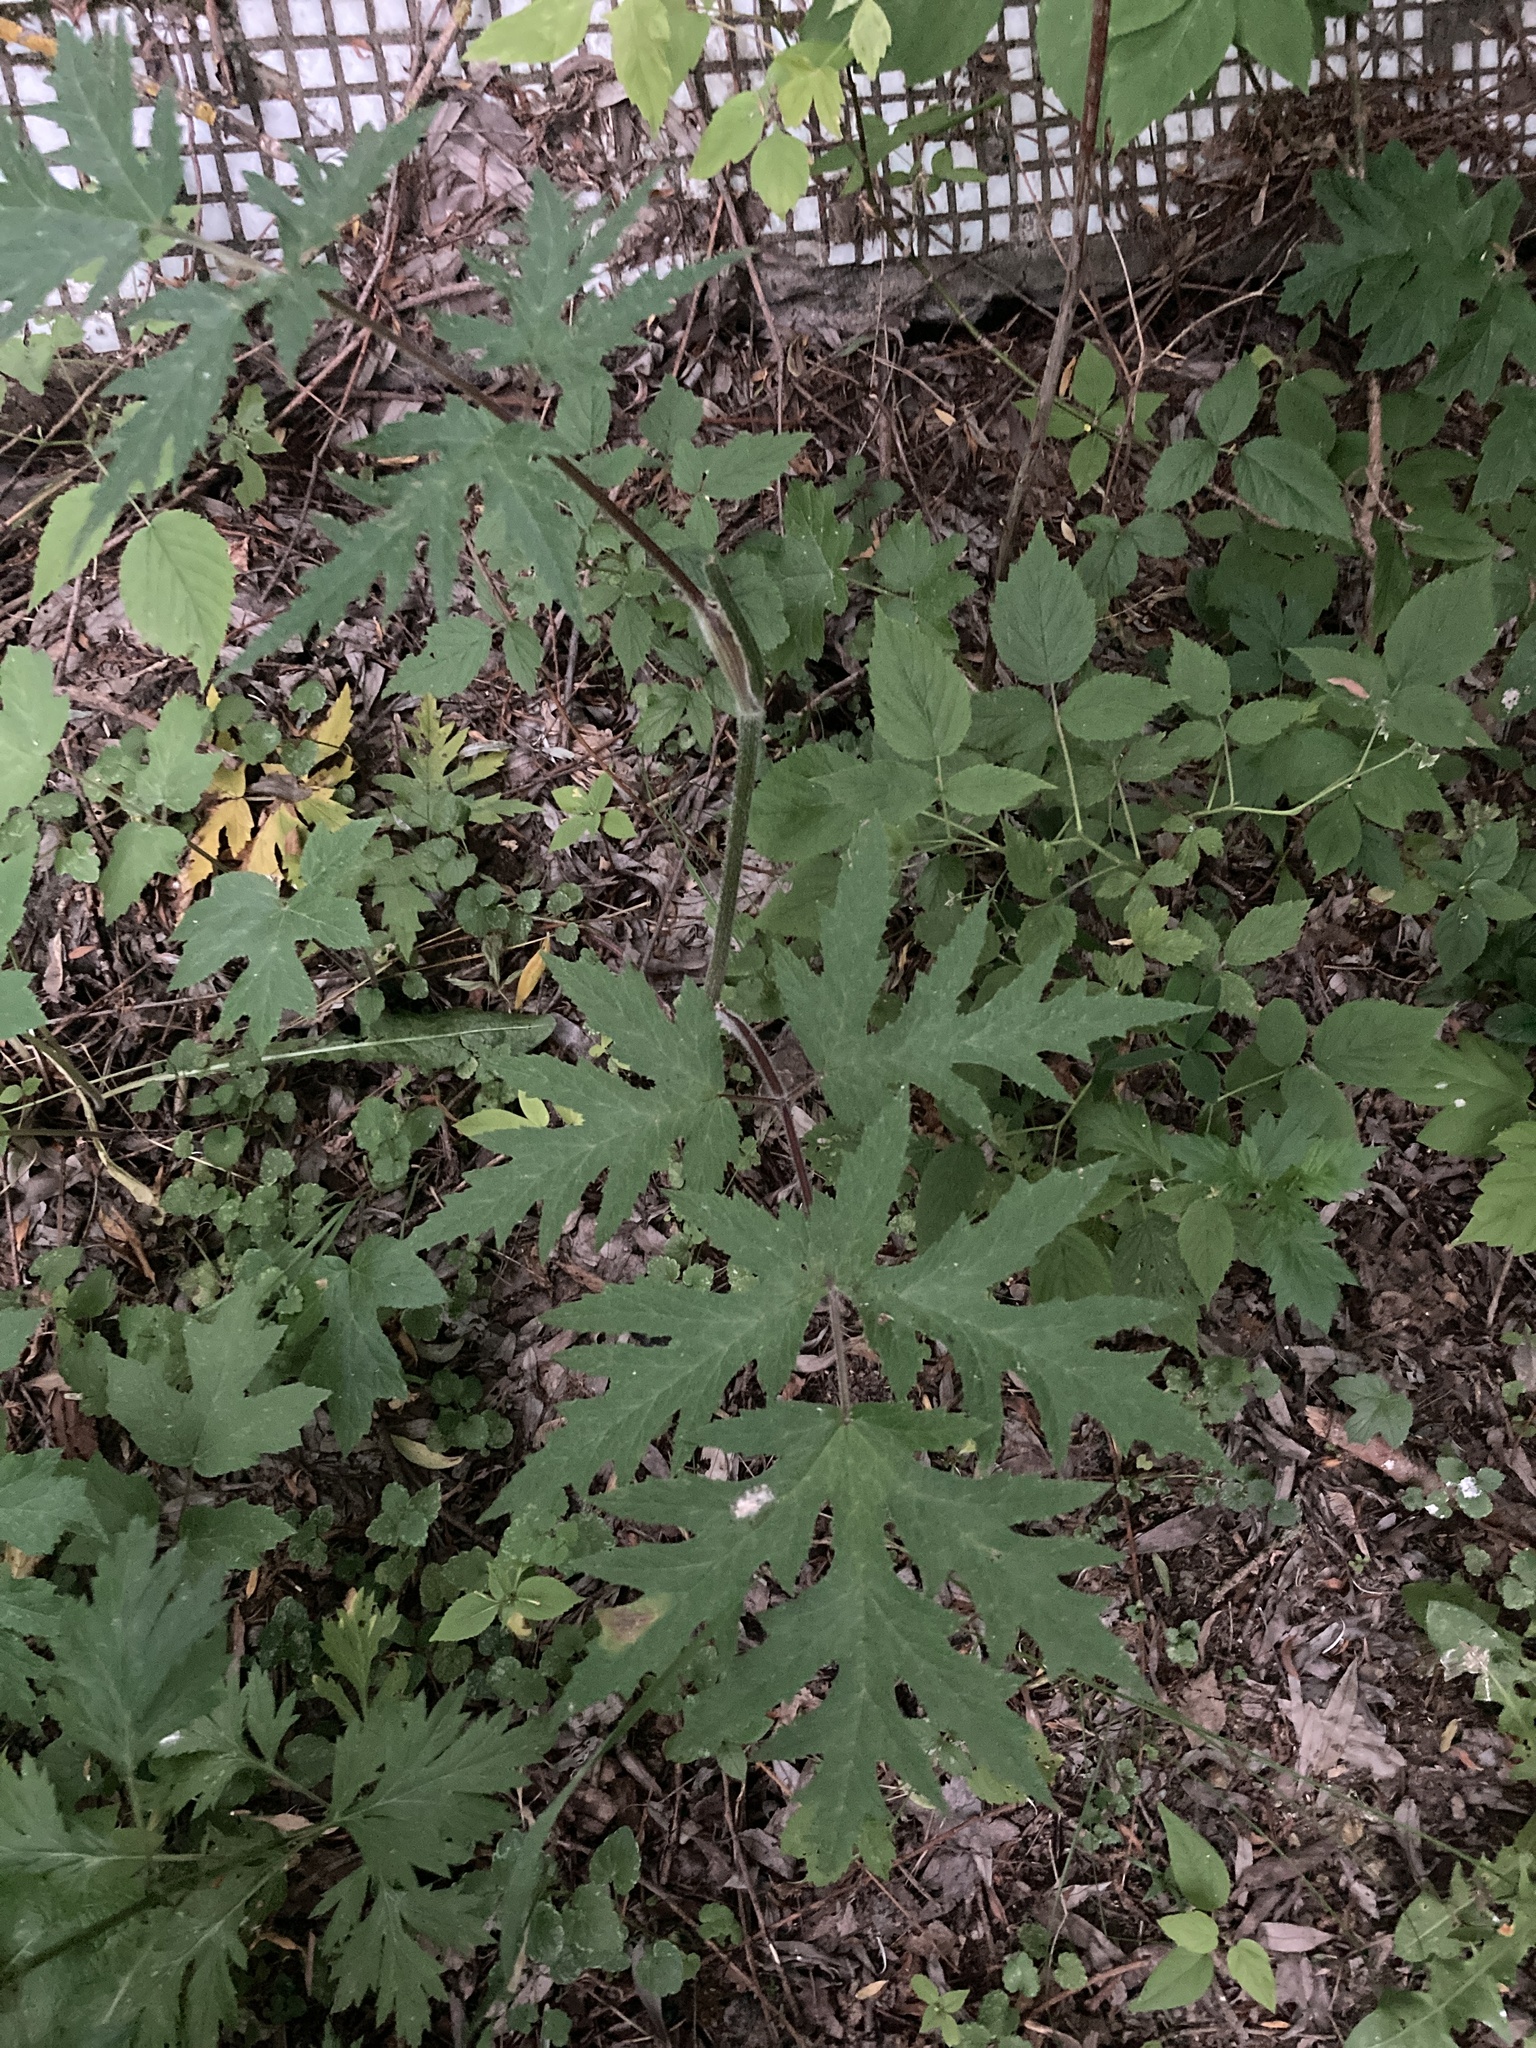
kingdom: Plantae
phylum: Tracheophyta
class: Magnoliopsida
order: Apiales
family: Apiaceae
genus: Heracleum
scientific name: Heracleum sphondylium
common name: Hogweed
